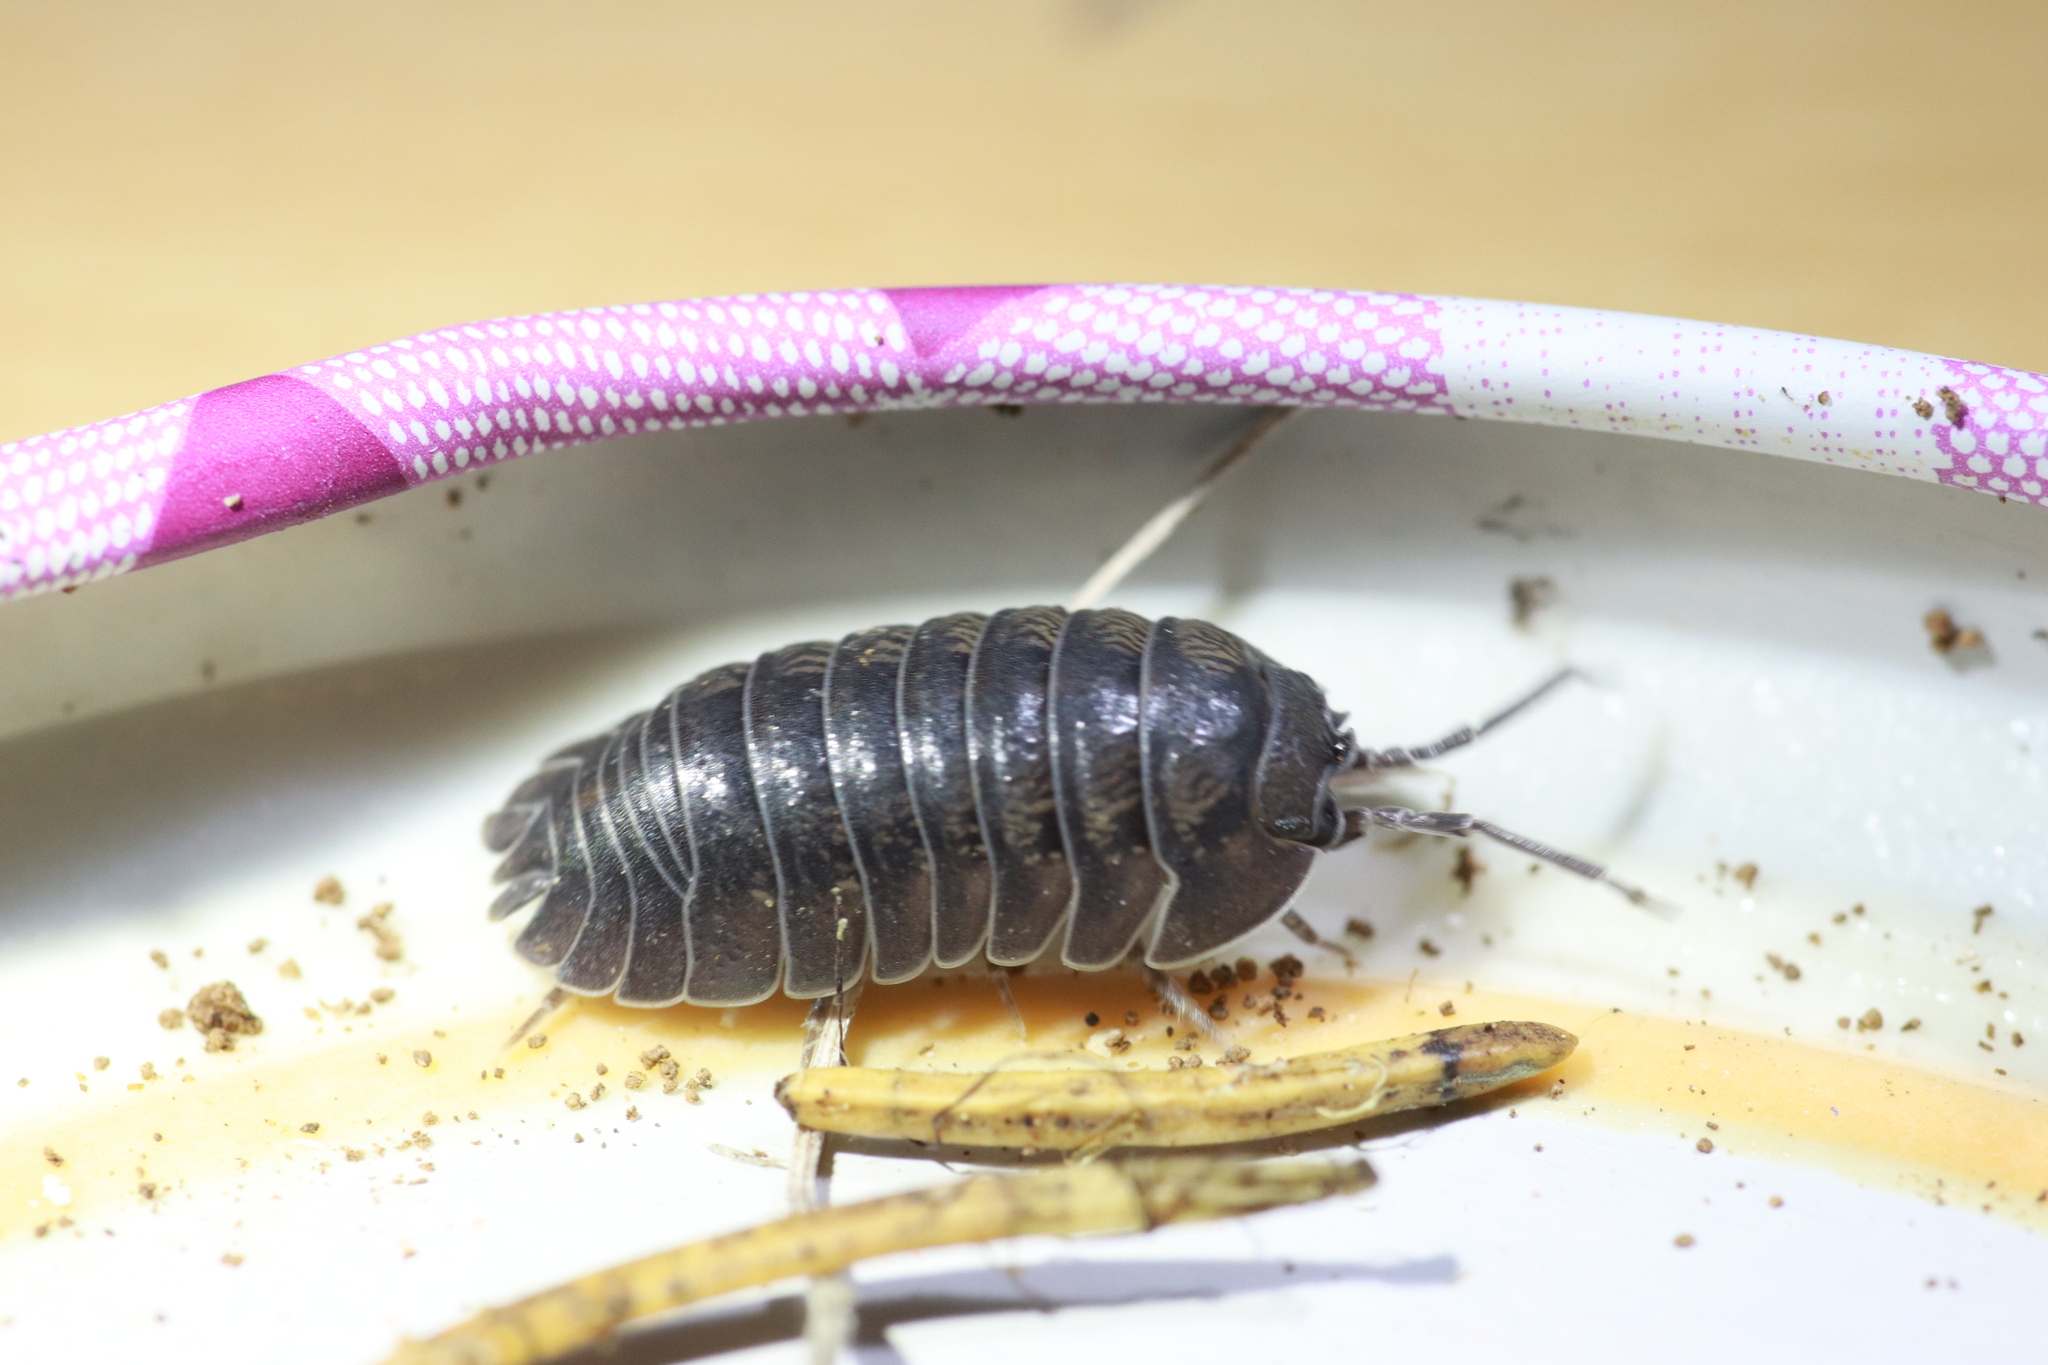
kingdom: Animalia
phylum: Arthropoda
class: Malacostraca
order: Isopoda
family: Armadillidiidae
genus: Armadillidium
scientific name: Armadillidium nasatum
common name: Isopod
